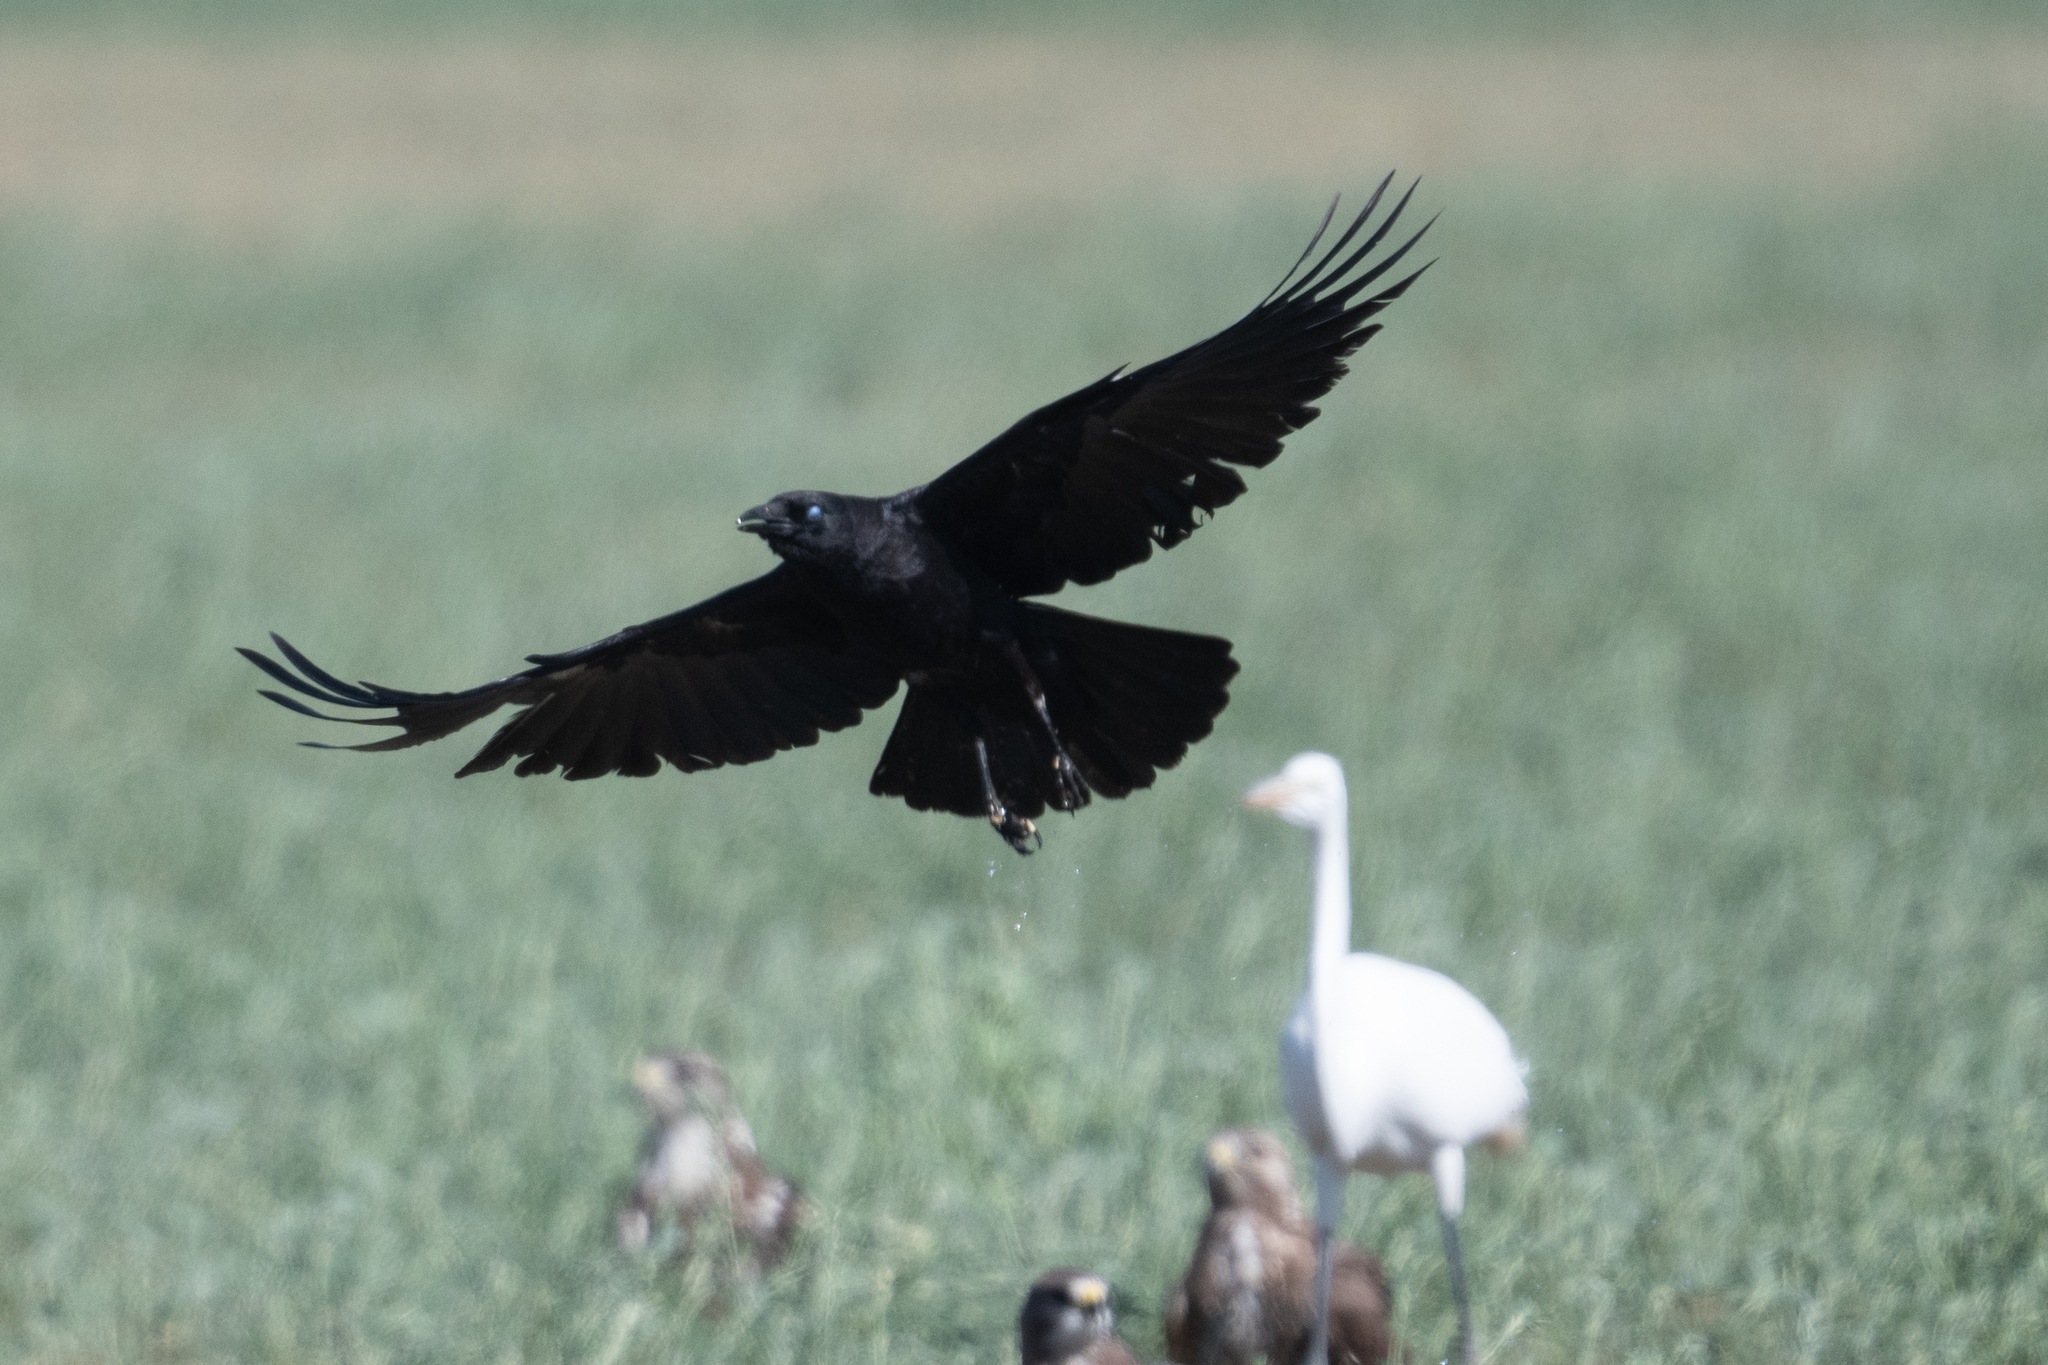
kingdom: Animalia
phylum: Chordata
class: Aves
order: Passeriformes
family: Corvidae
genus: Corvus
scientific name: Corvus corax
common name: Common raven
